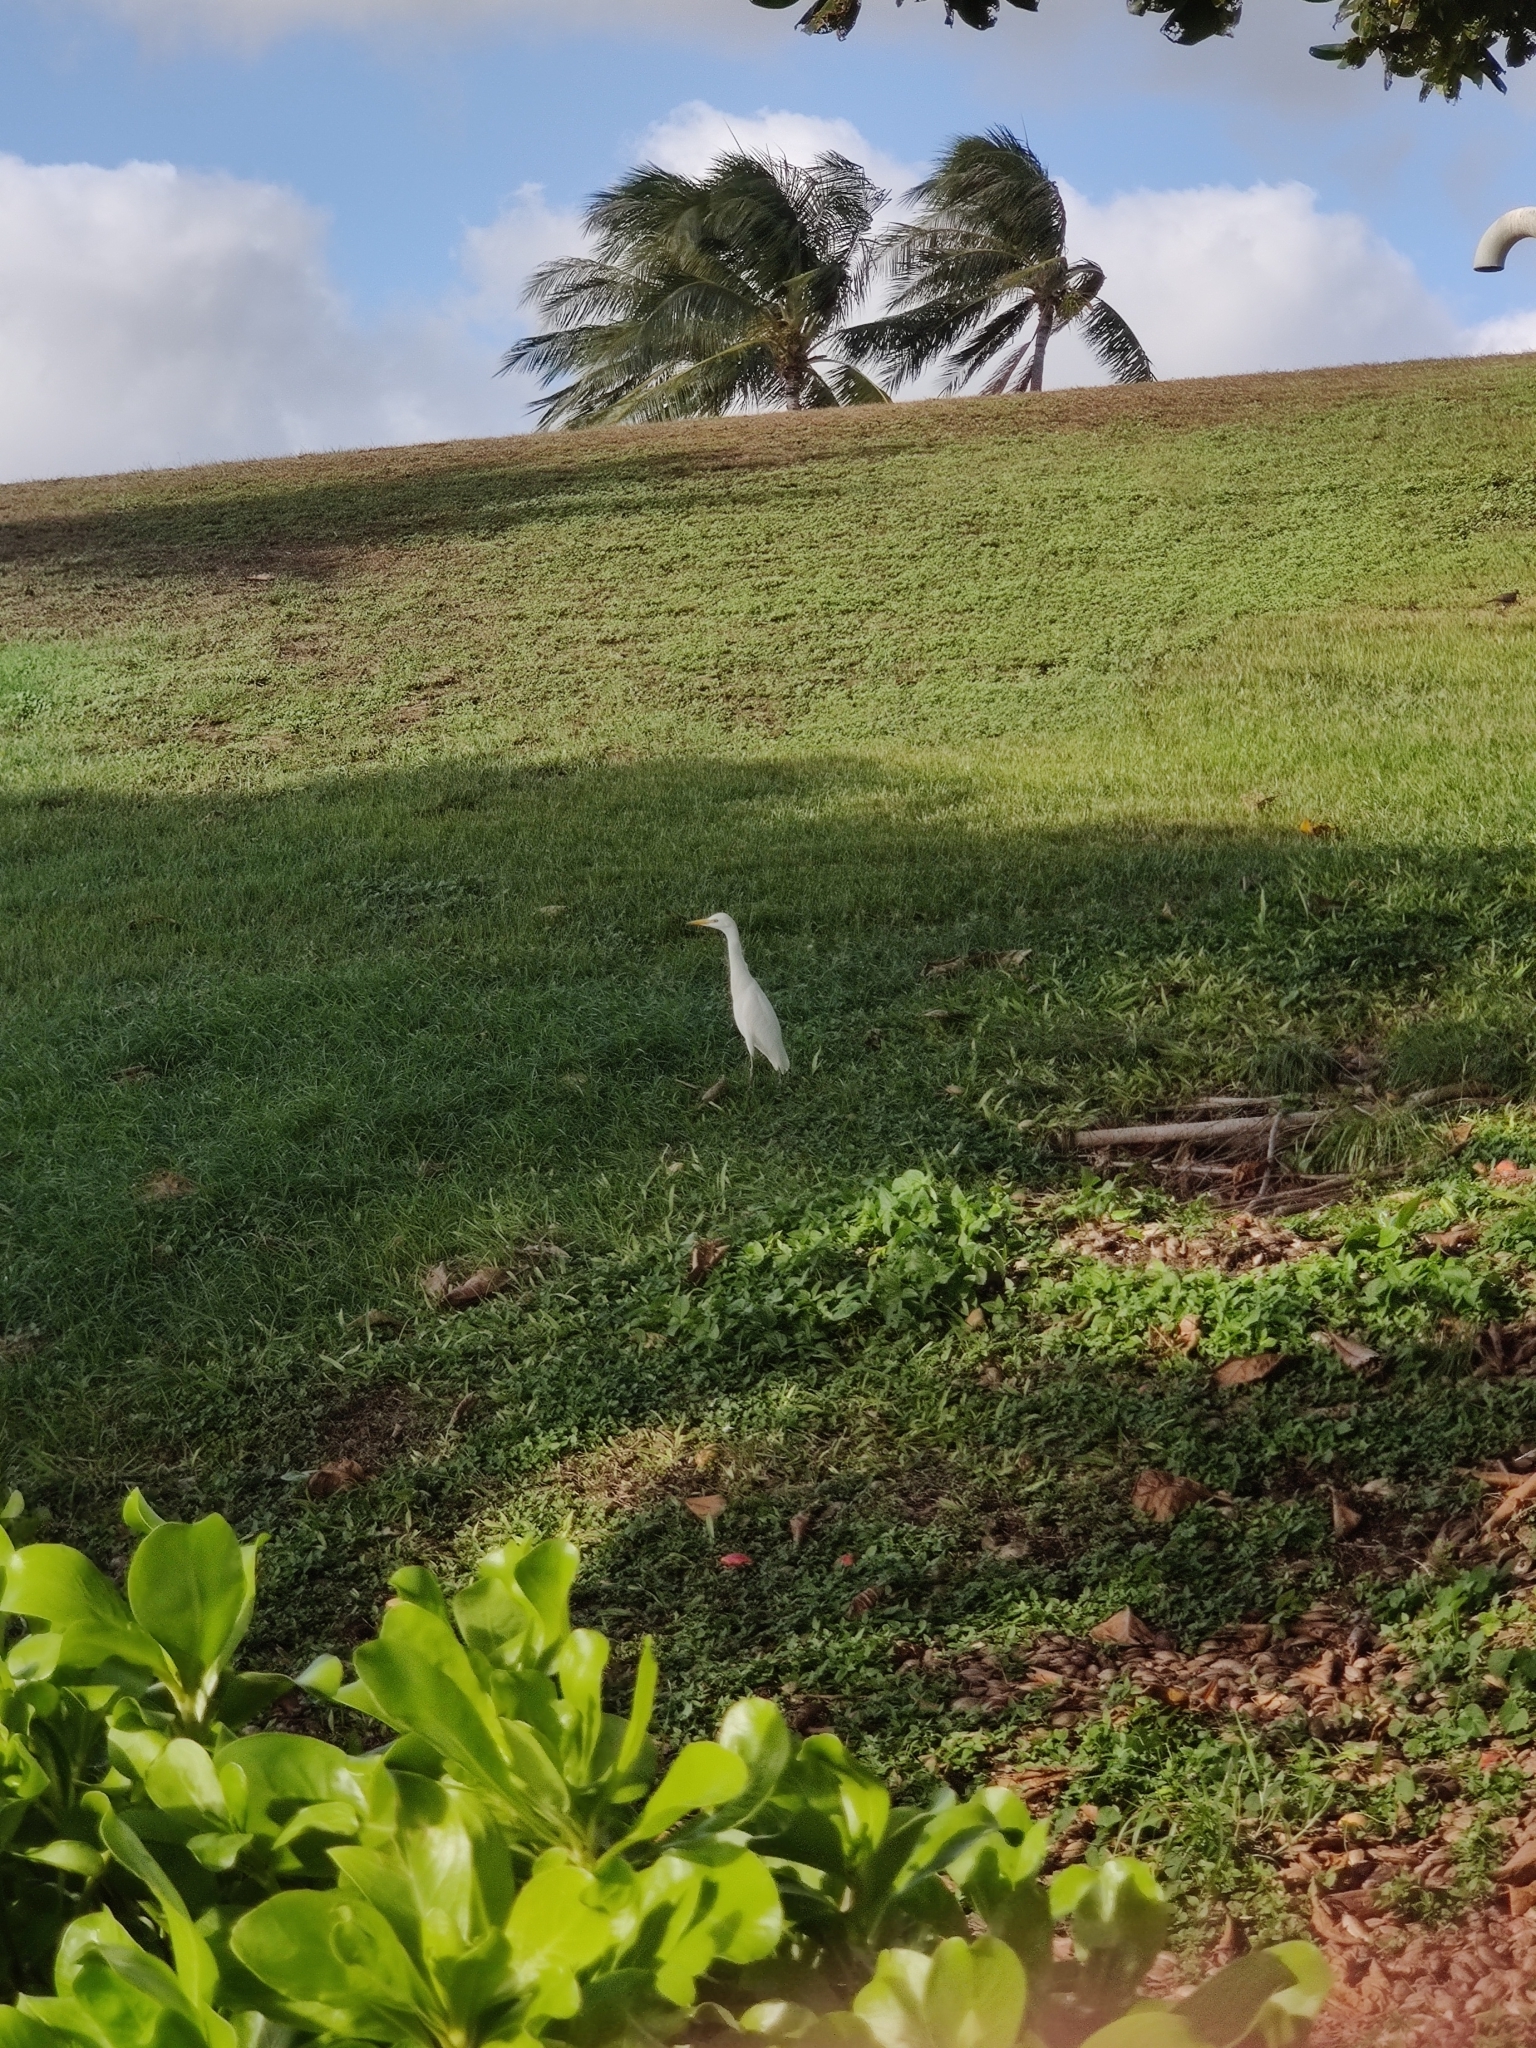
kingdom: Animalia
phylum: Chordata
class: Aves
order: Pelecaniformes
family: Ardeidae
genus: Bubulcus
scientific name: Bubulcus ibis
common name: Cattle egret
